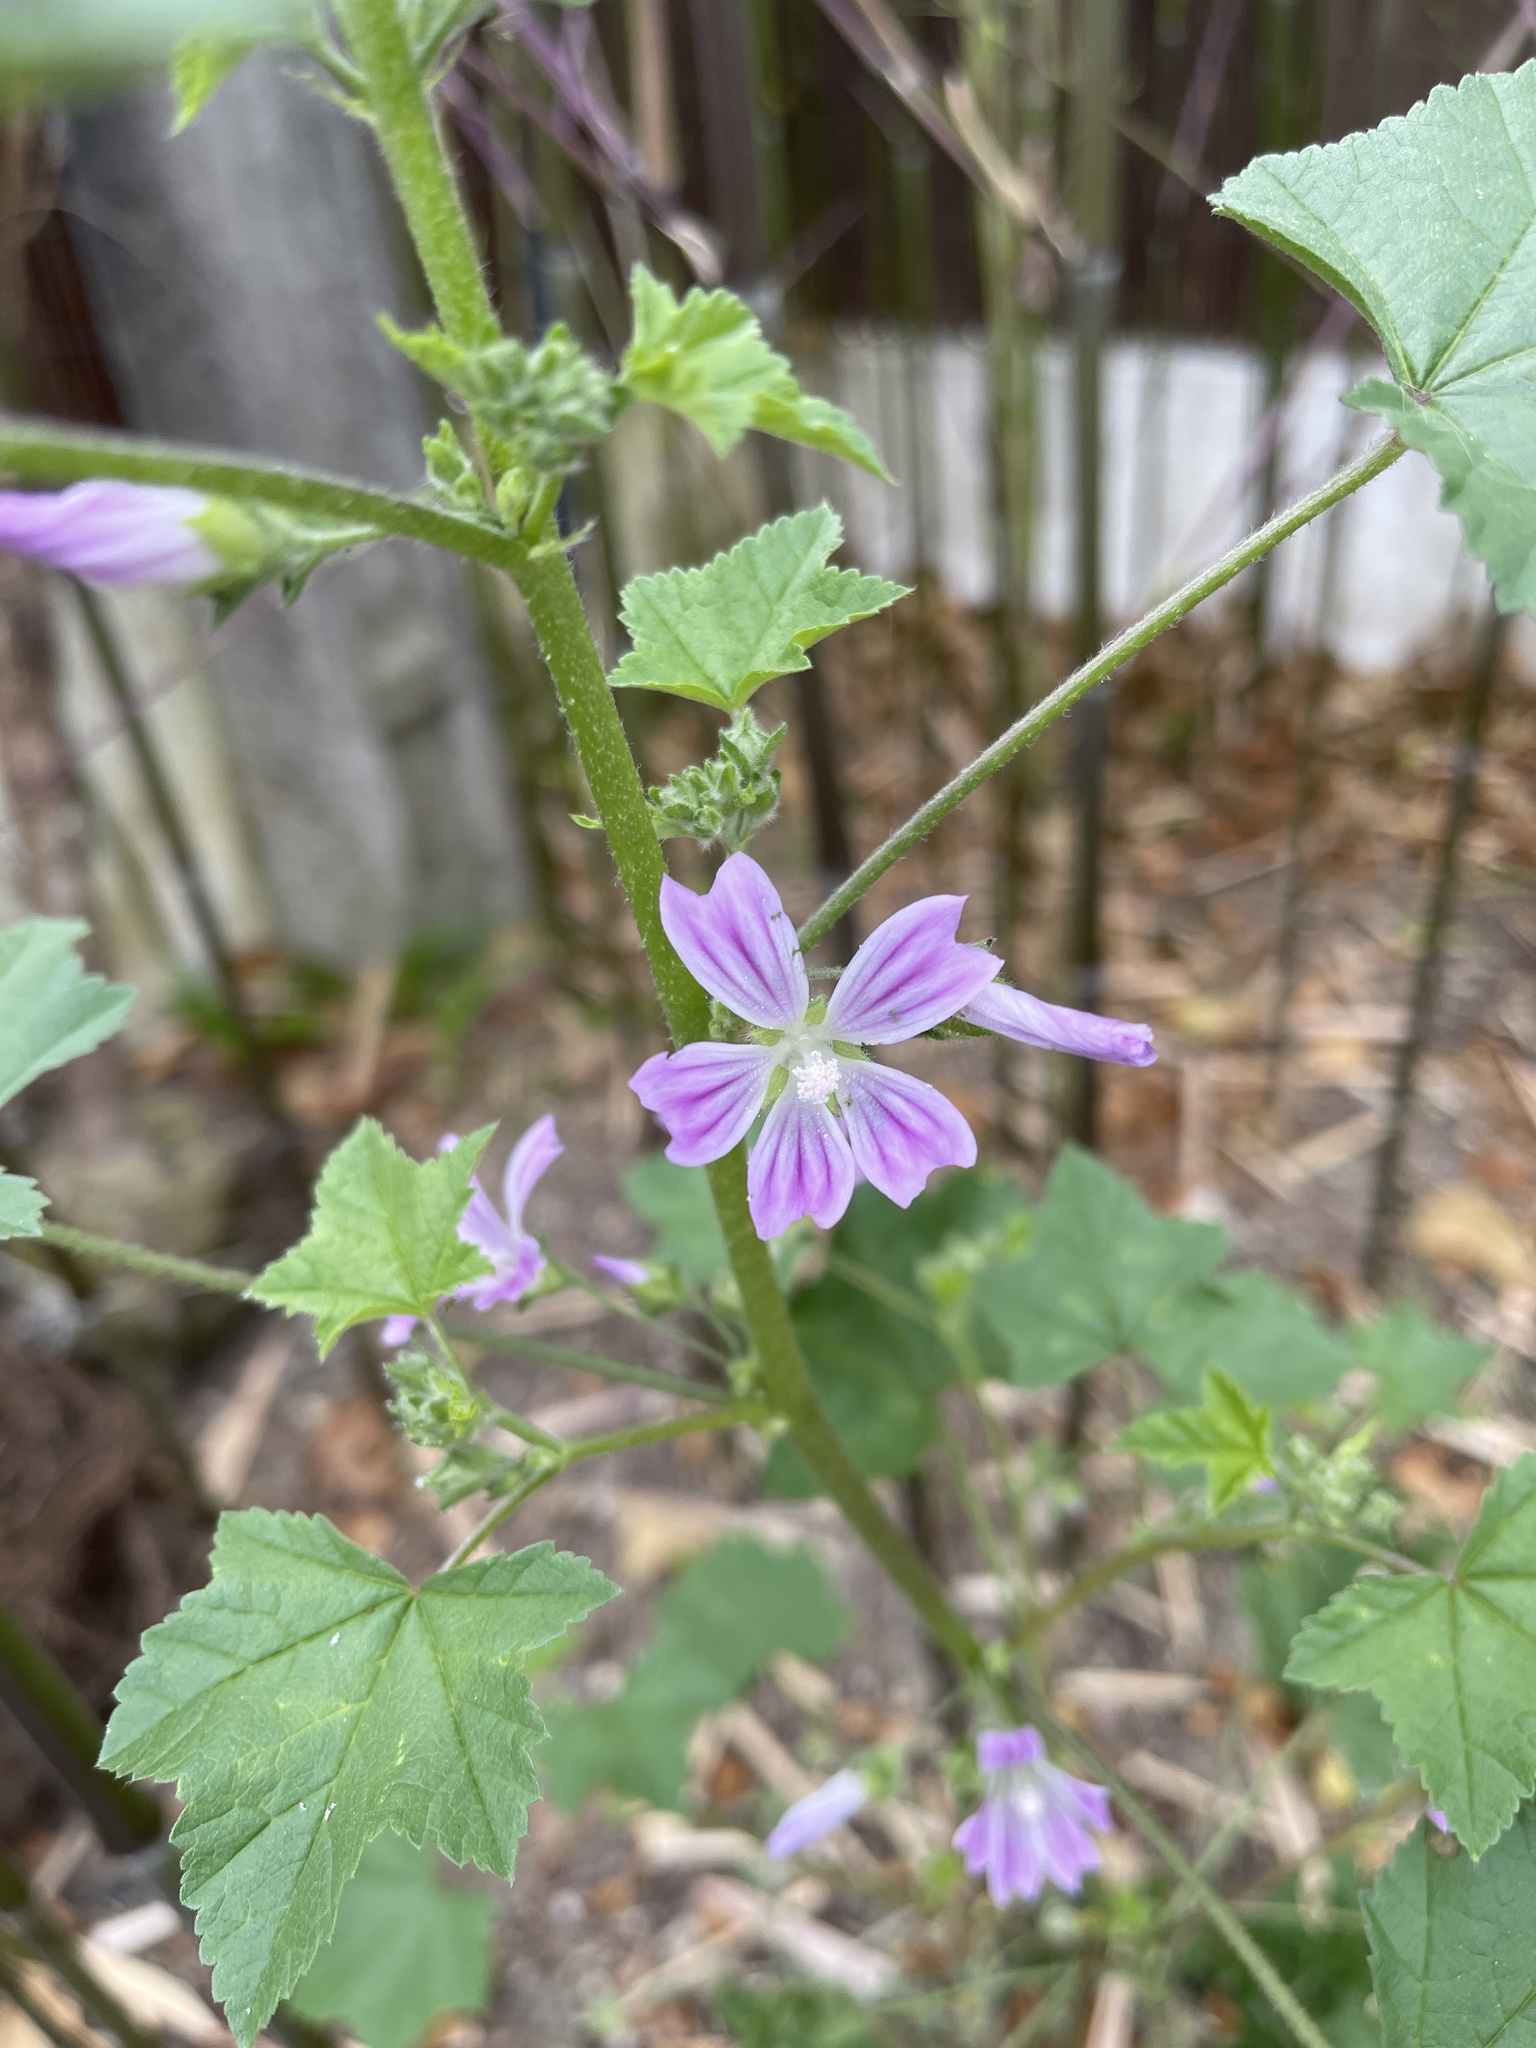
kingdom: Plantae
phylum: Tracheophyta
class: Magnoliopsida
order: Malvales
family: Malvaceae
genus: Malva
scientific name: Malva sylvestris
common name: Common mallow
